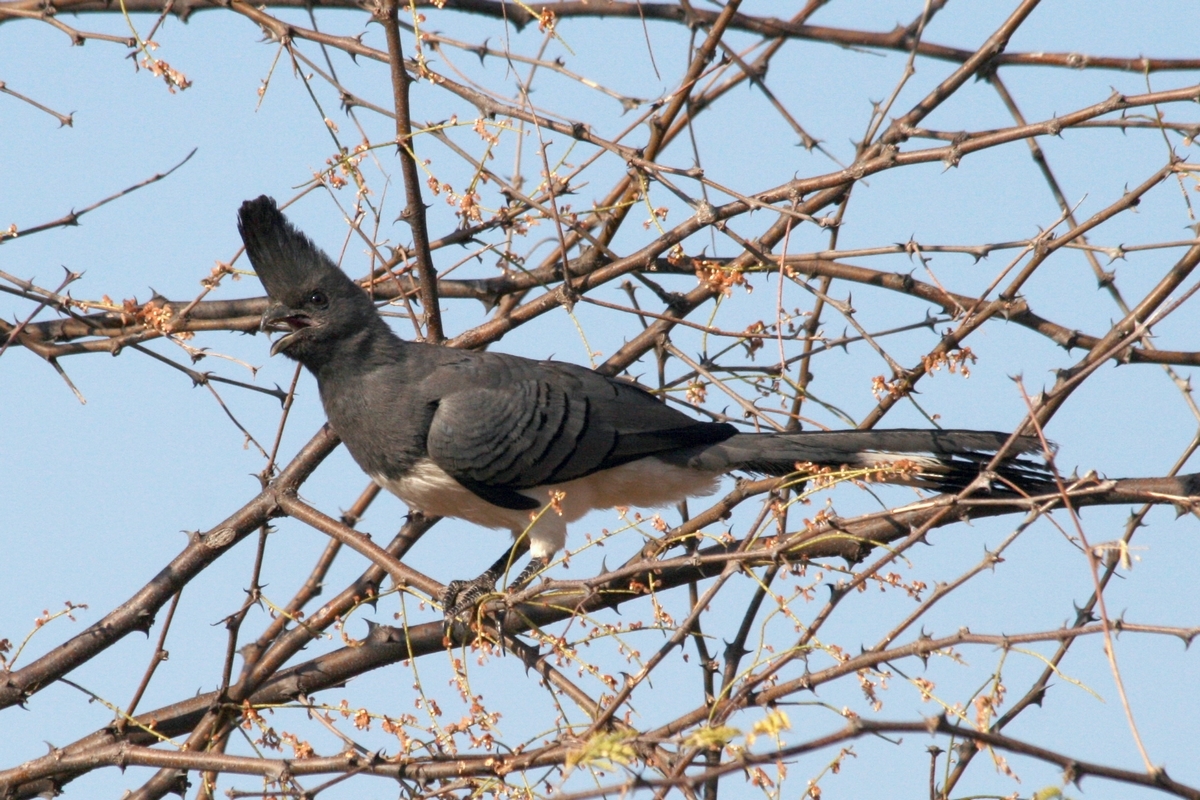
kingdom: Animalia
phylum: Chordata
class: Aves
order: Musophagiformes
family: Musophagidae
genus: Corythaixoides
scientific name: Corythaixoides leucogaster
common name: White-bellied go-away-bird
